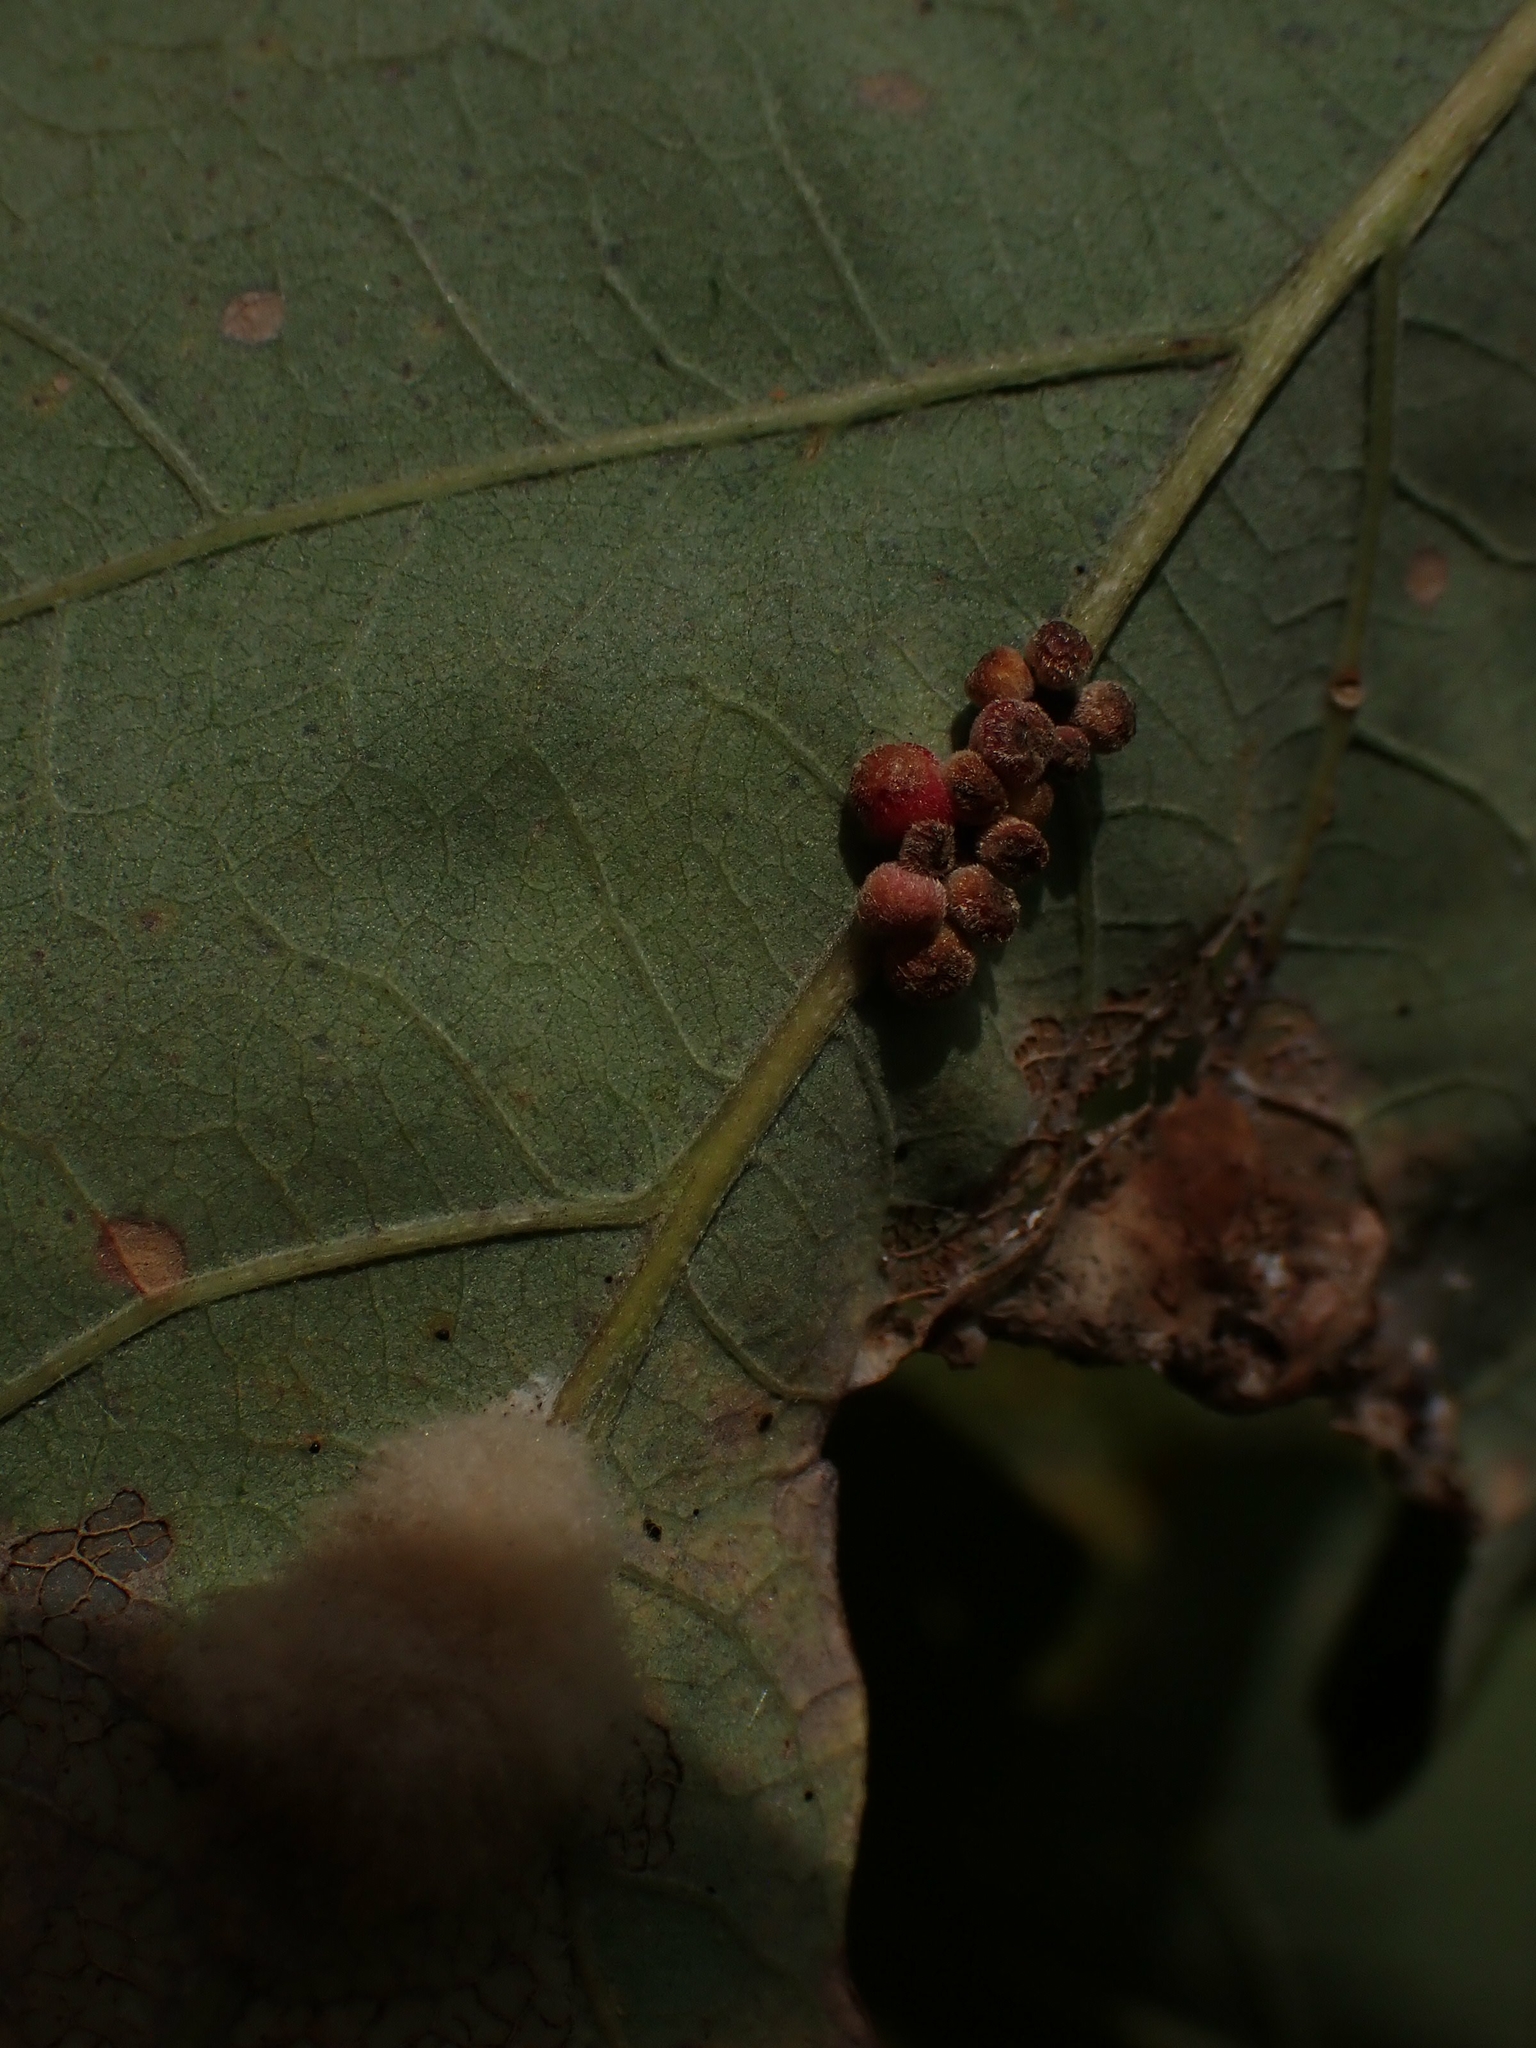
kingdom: Animalia
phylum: Arthropoda
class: Insecta
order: Hymenoptera
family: Cynipidae
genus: Andricus
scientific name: Andricus
